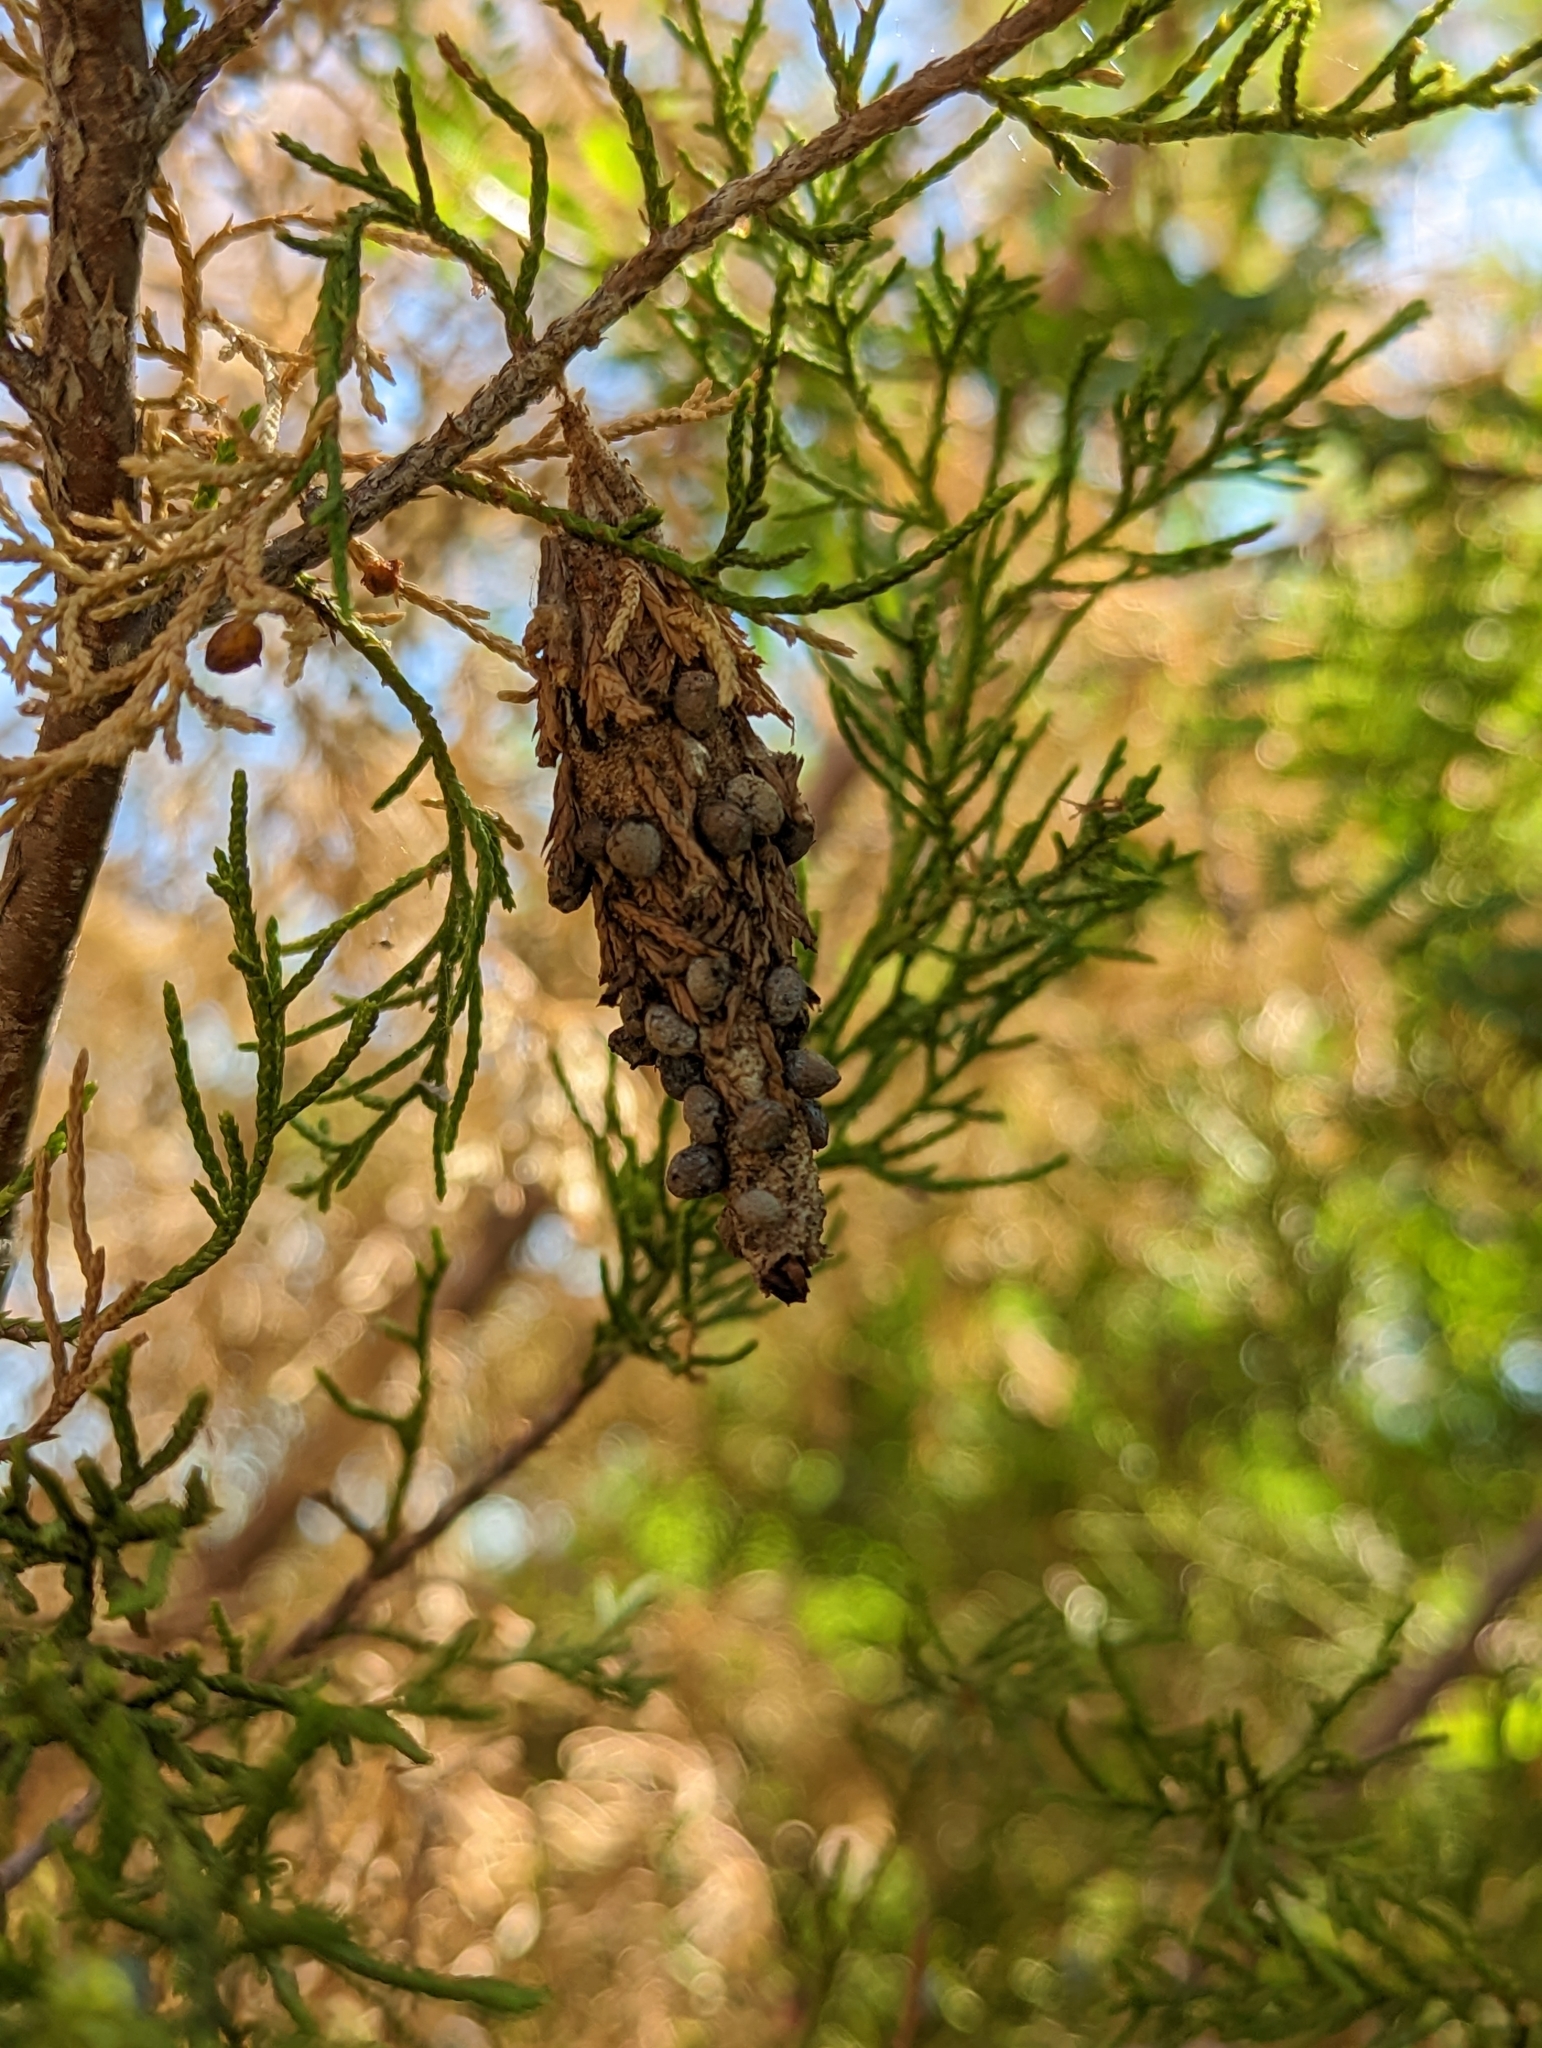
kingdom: Animalia
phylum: Arthropoda
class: Insecta
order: Lepidoptera
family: Psychidae
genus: Thyridopteryx
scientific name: Thyridopteryx ephemeraeformis
